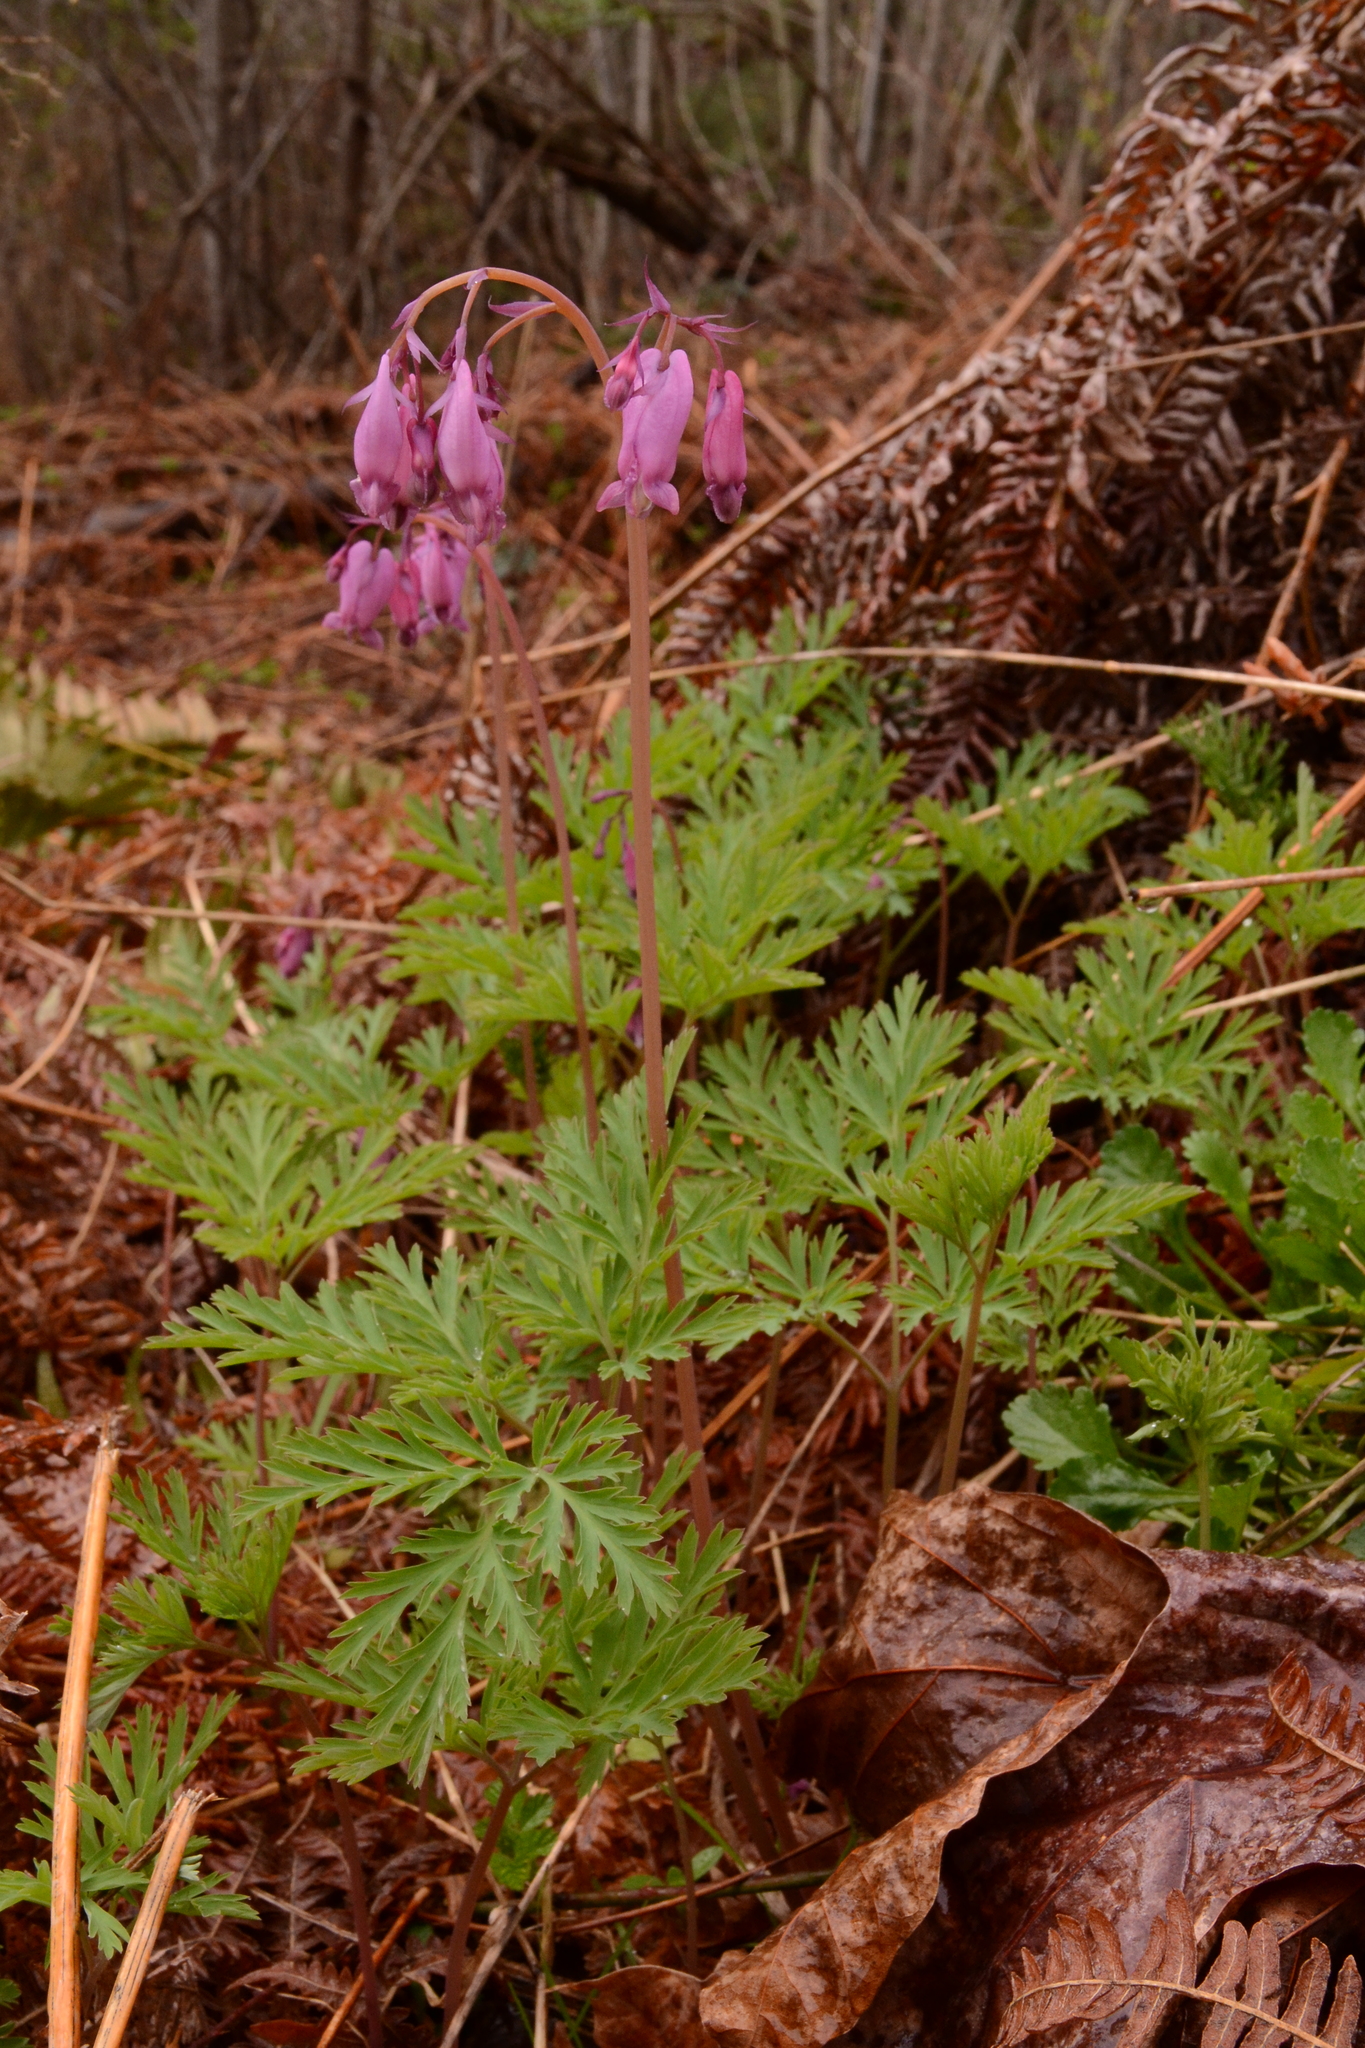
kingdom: Plantae
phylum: Tracheophyta
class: Magnoliopsida
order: Ranunculales
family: Papaveraceae
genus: Dicentra
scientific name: Dicentra formosa
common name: Bleeding-heart
